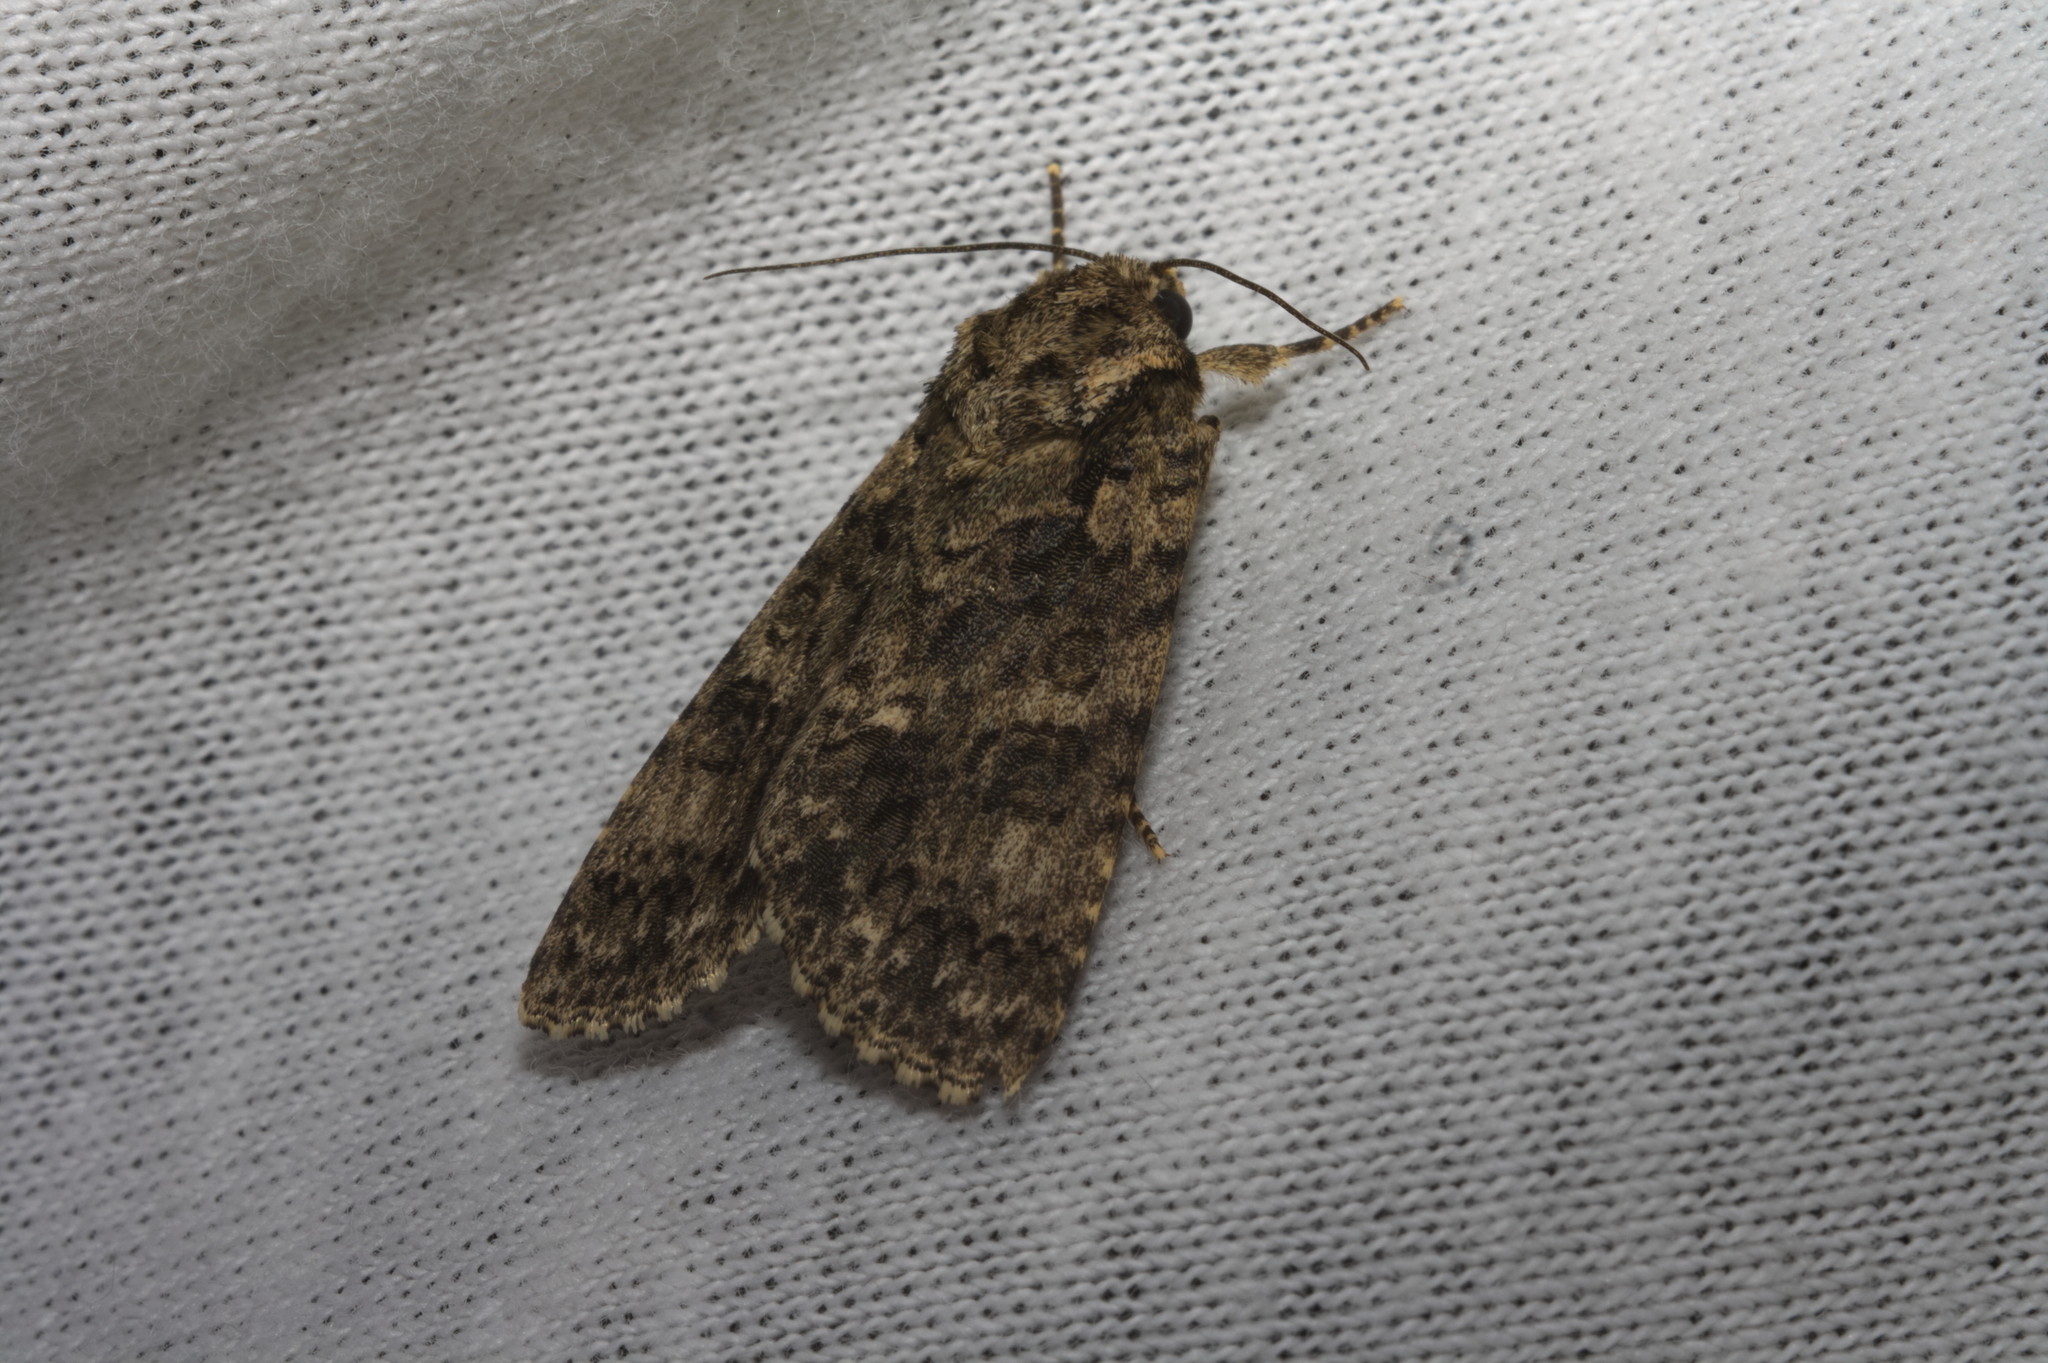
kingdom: Animalia
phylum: Arthropoda
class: Insecta
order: Lepidoptera
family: Noctuidae
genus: Acronicta
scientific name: Acronicta rumicis
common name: Knot grass
